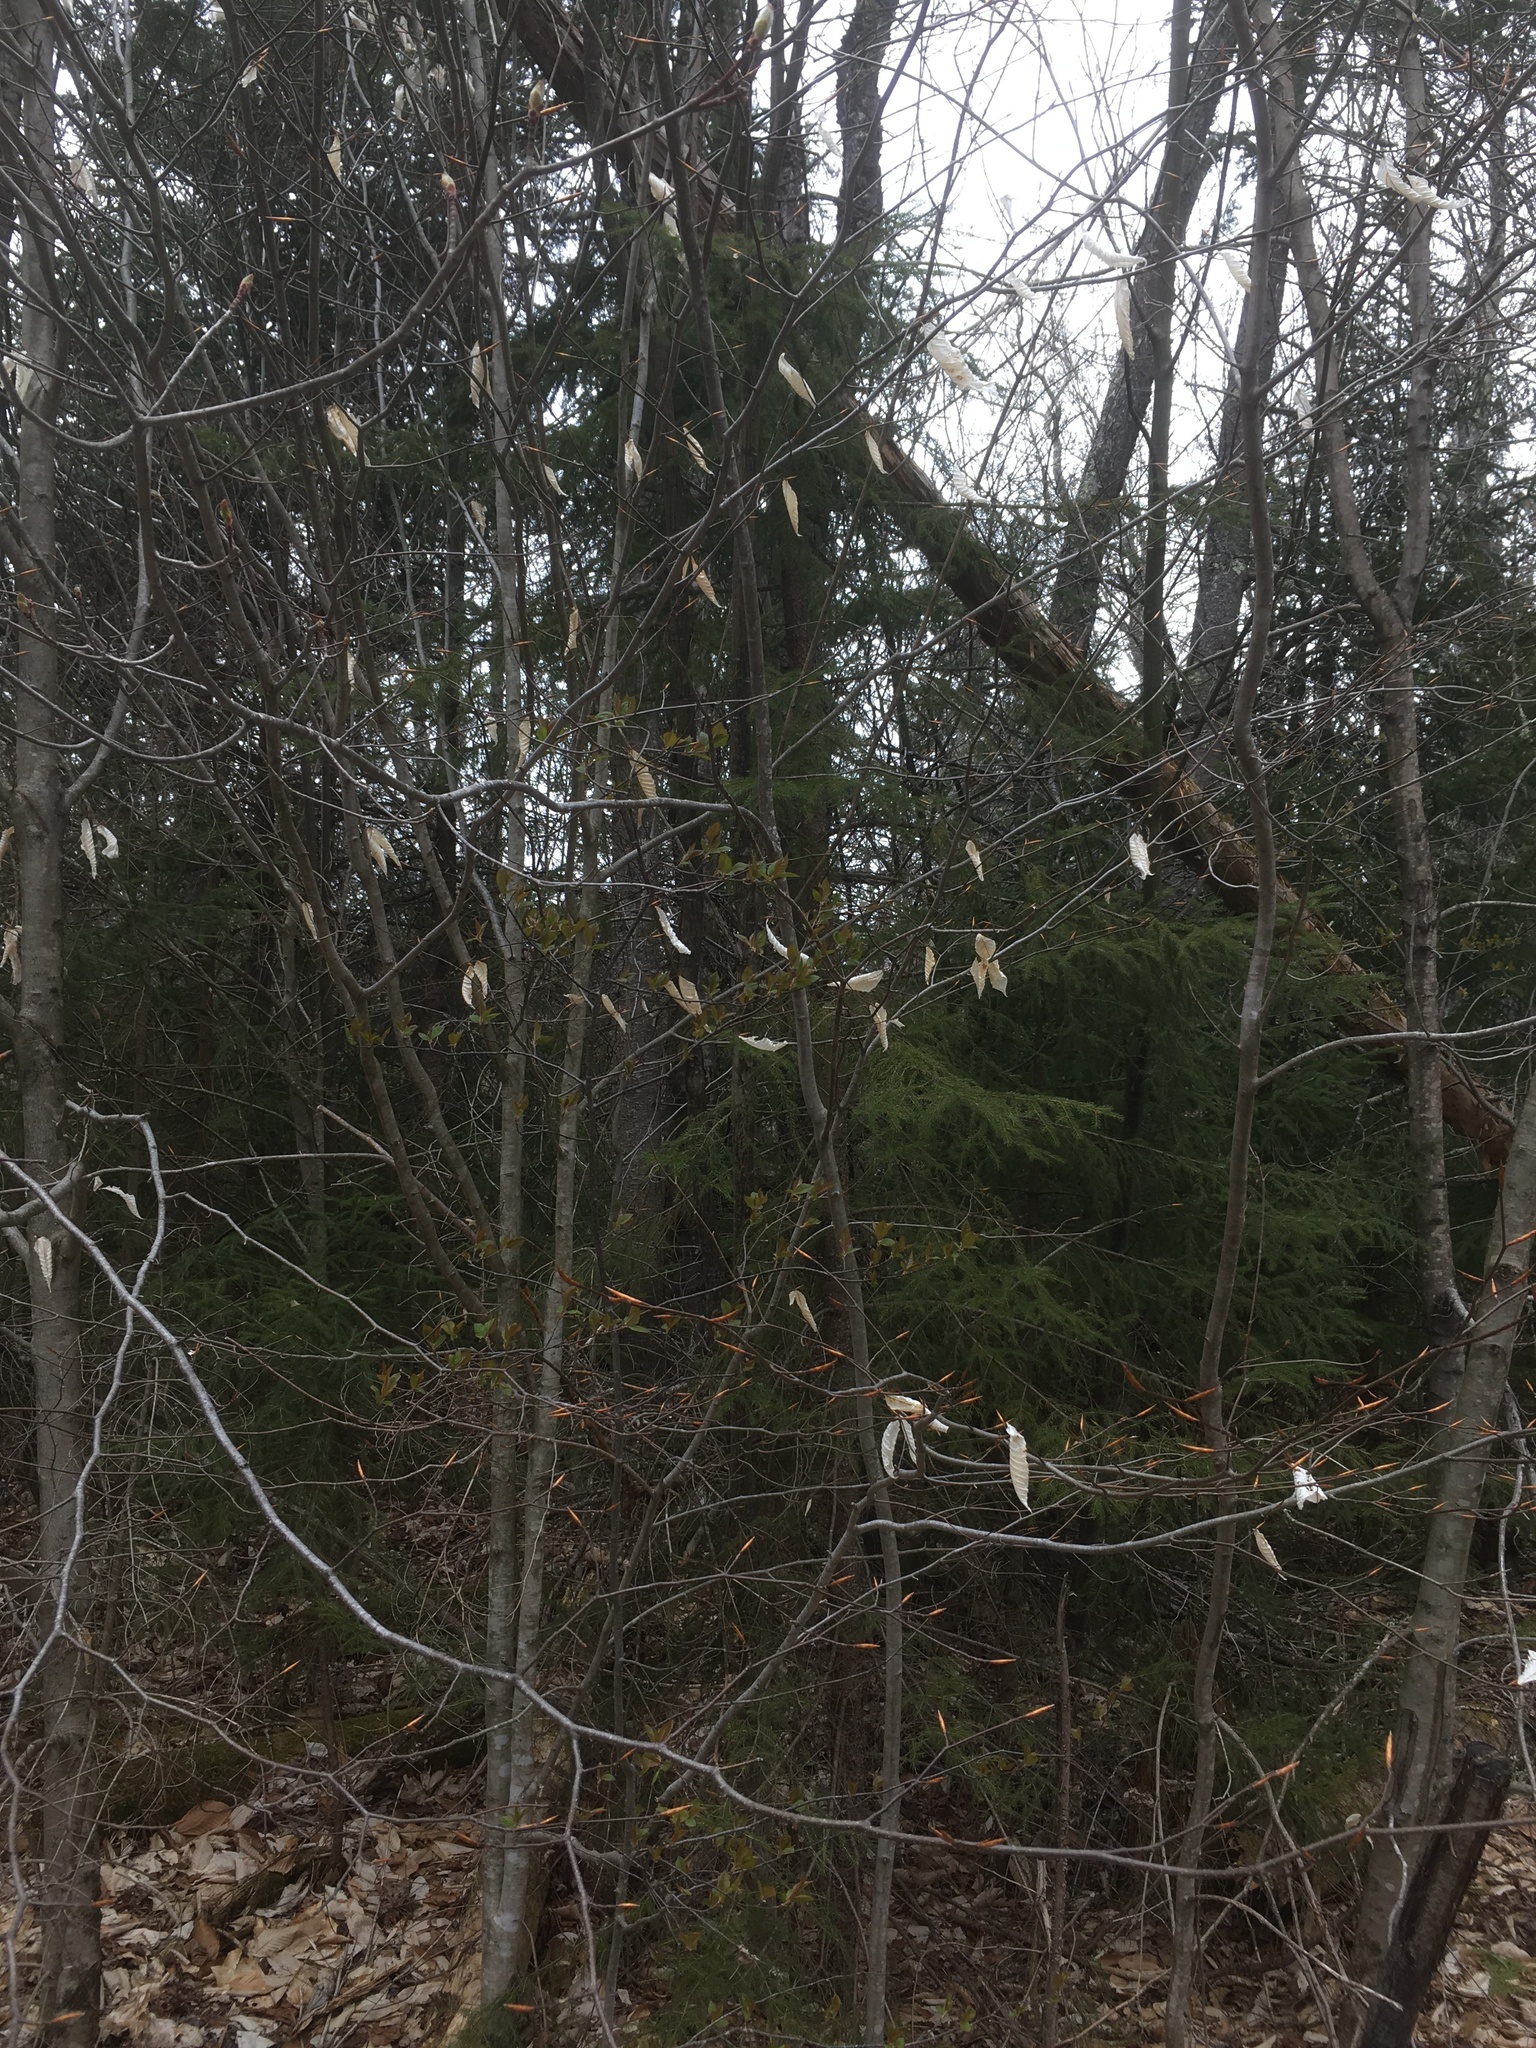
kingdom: Plantae
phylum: Tracheophyta
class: Magnoliopsida
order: Fagales
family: Fagaceae
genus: Fagus
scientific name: Fagus grandifolia
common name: American beech
